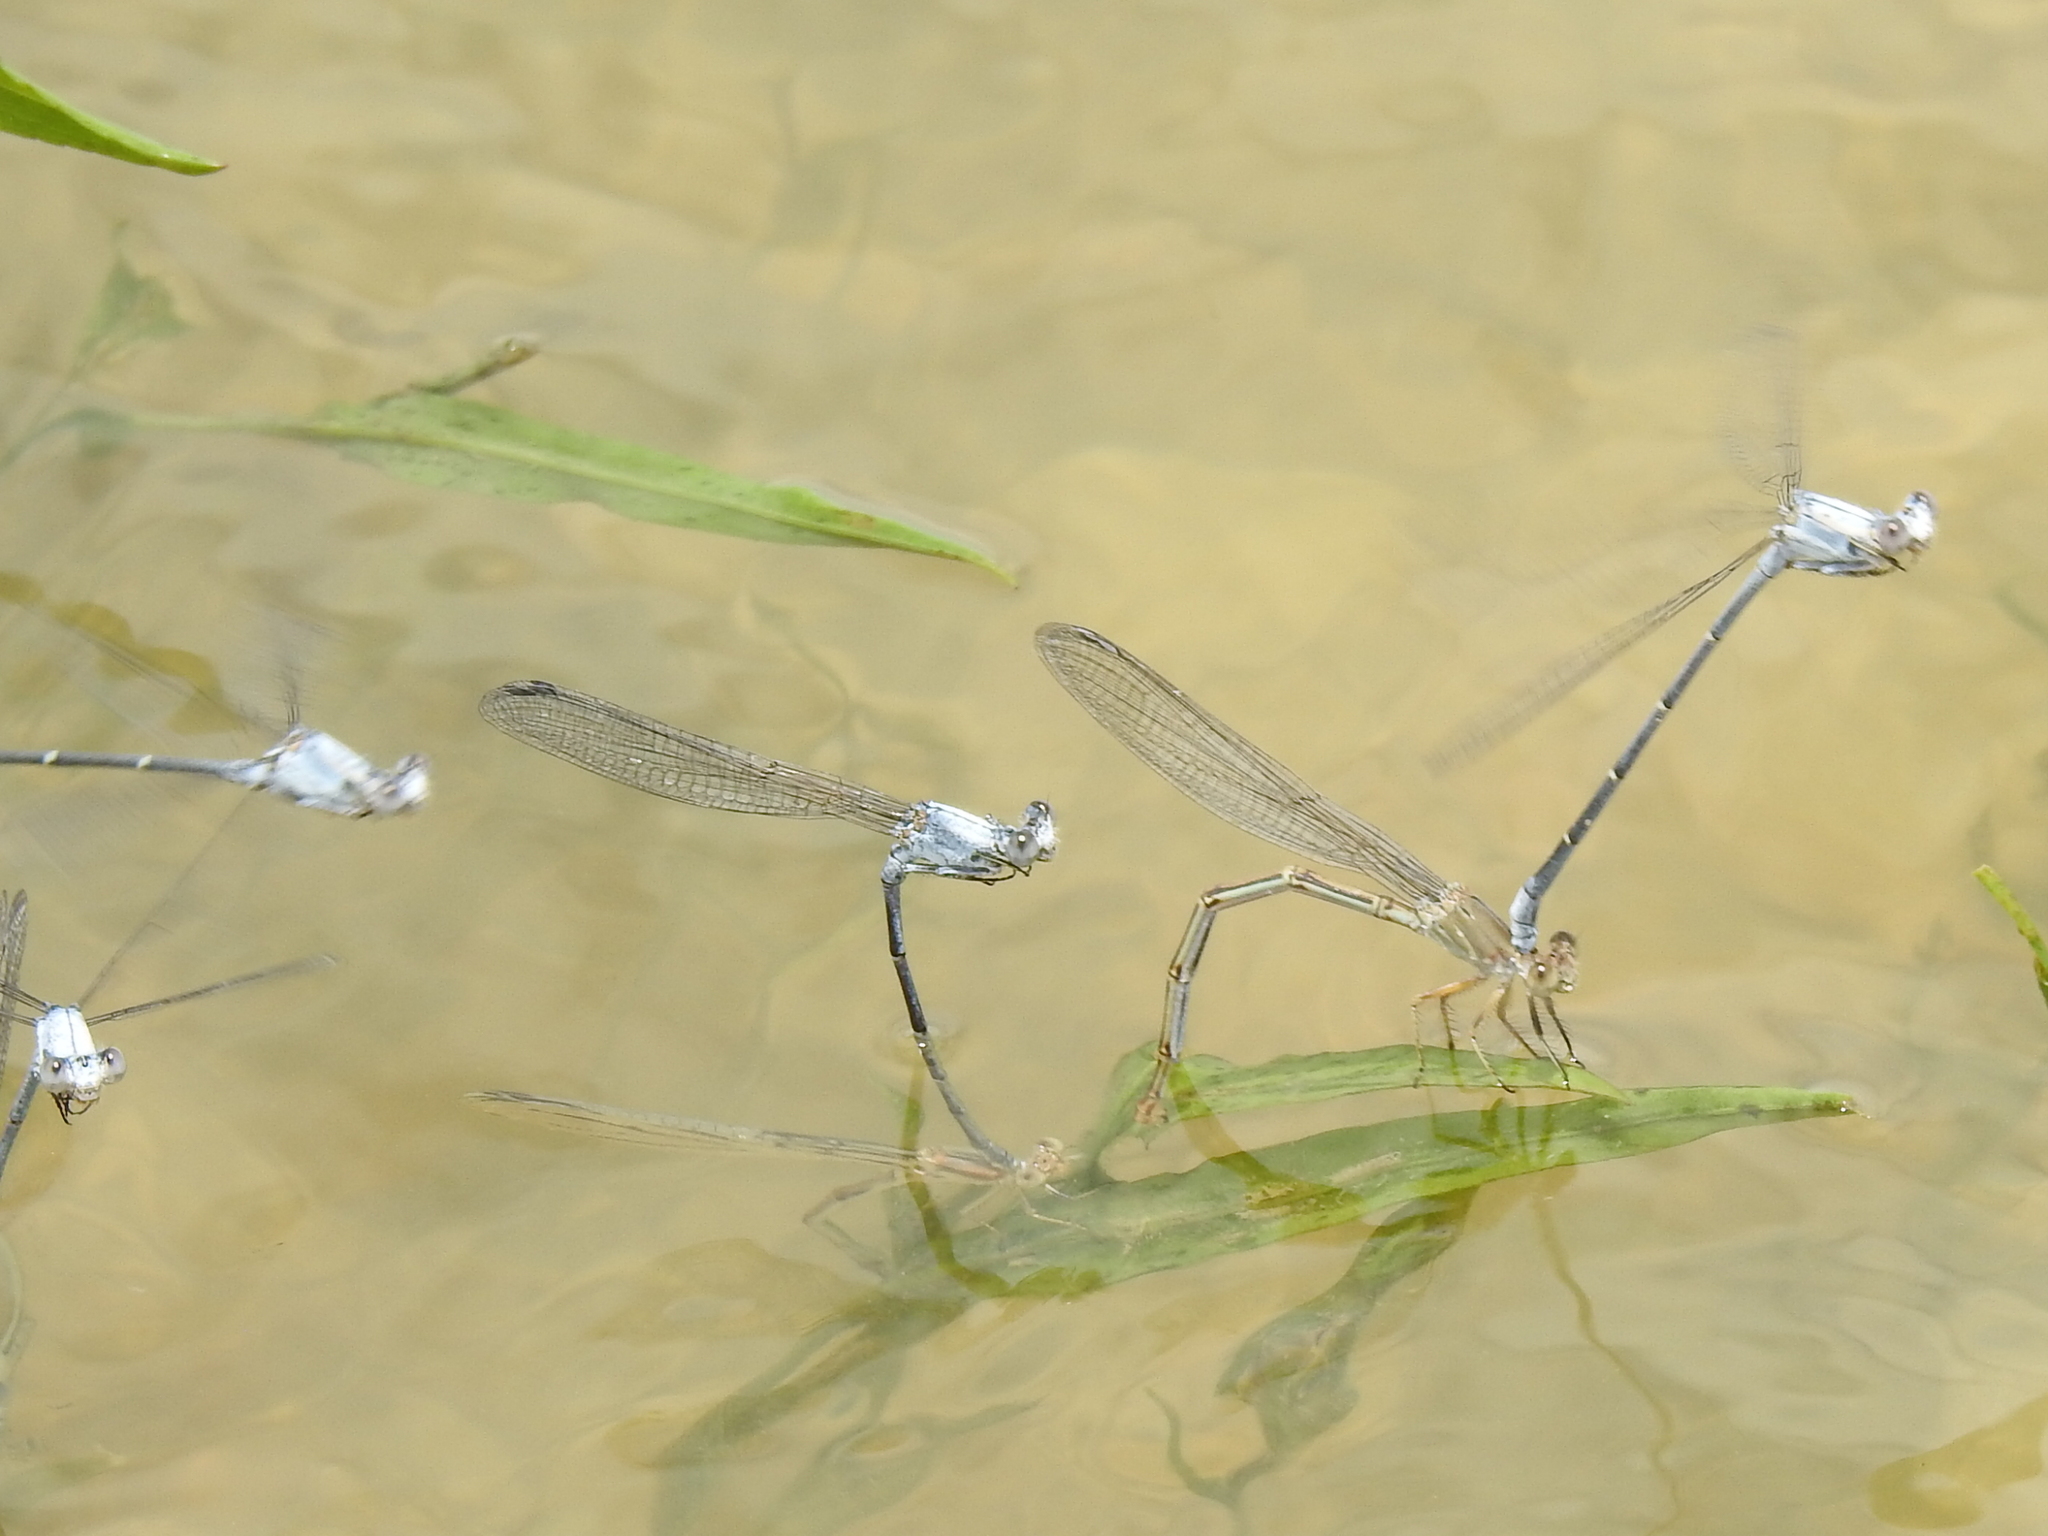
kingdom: Animalia
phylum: Arthropoda
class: Insecta
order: Odonata
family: Coenagrionidae
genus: Argia
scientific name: Argia moesta
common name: Powdered dancer
